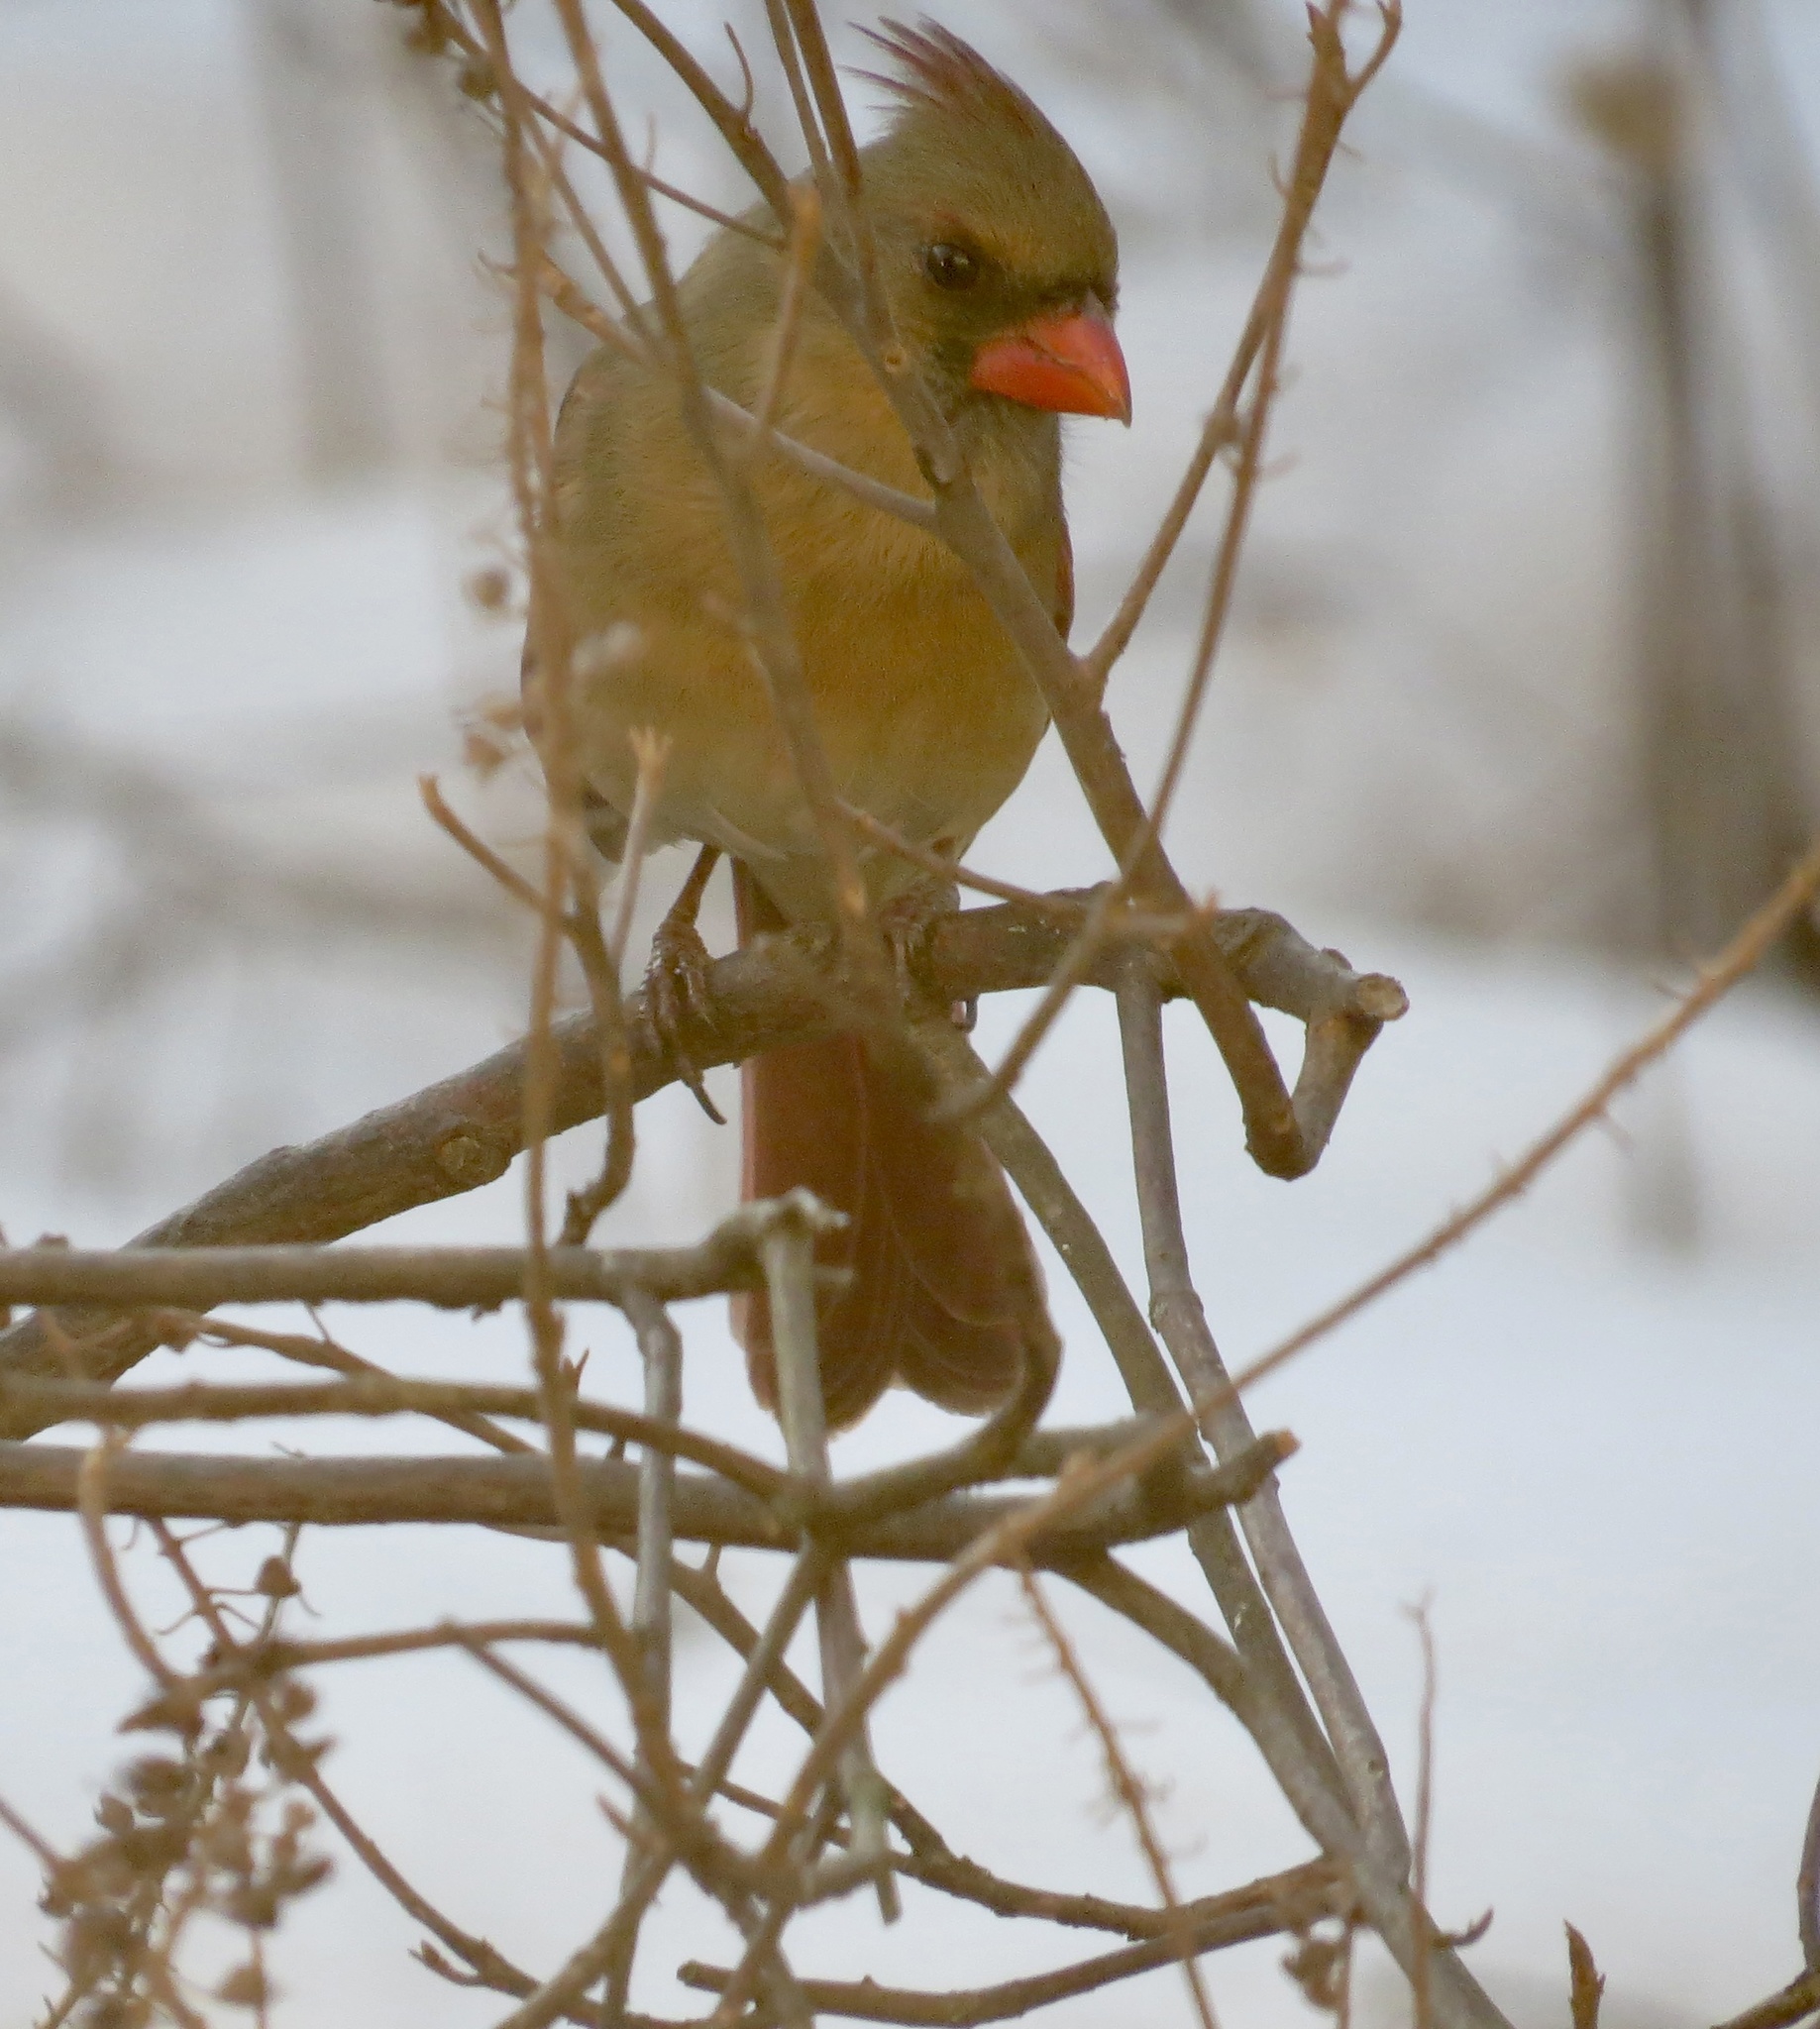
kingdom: Animalia
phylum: Chordata
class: Aves
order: Passeriformes
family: Cardinalidae
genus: Cardinalis
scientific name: Cardinalis cardinalis
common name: Northern cardinal
